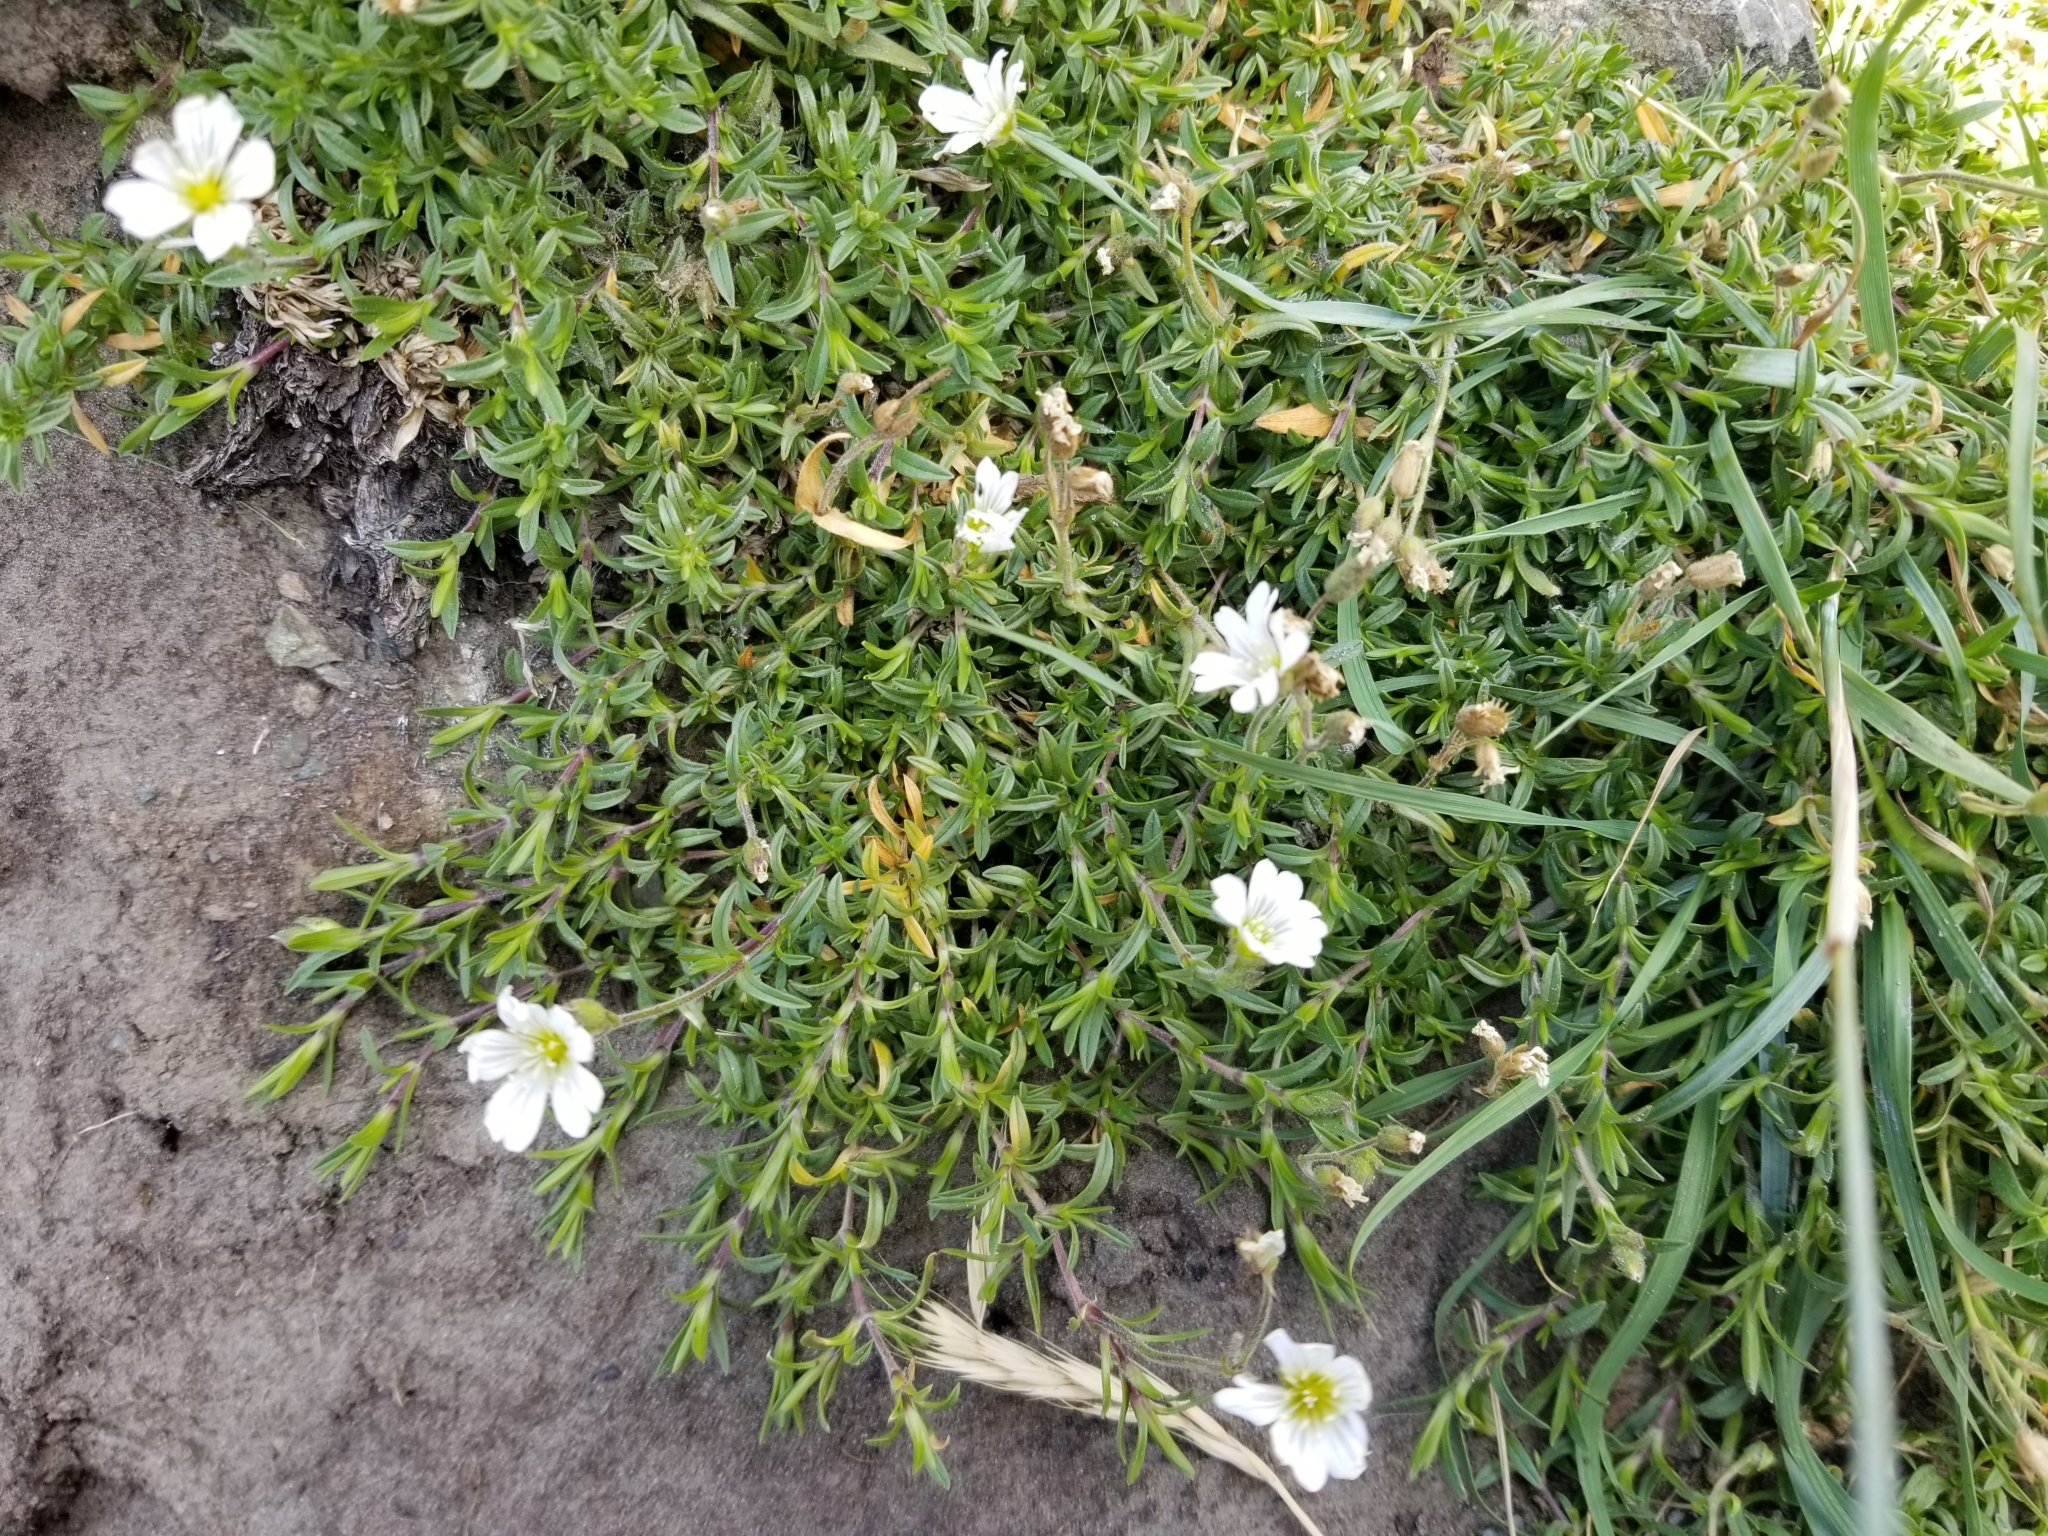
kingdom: Plantae
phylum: Tracheophyta
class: Magnoliopsida
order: Caryophyllales
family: Caryophyllaceae
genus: Cerastium
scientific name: Cerastium arvense
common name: Field mouse-ear
